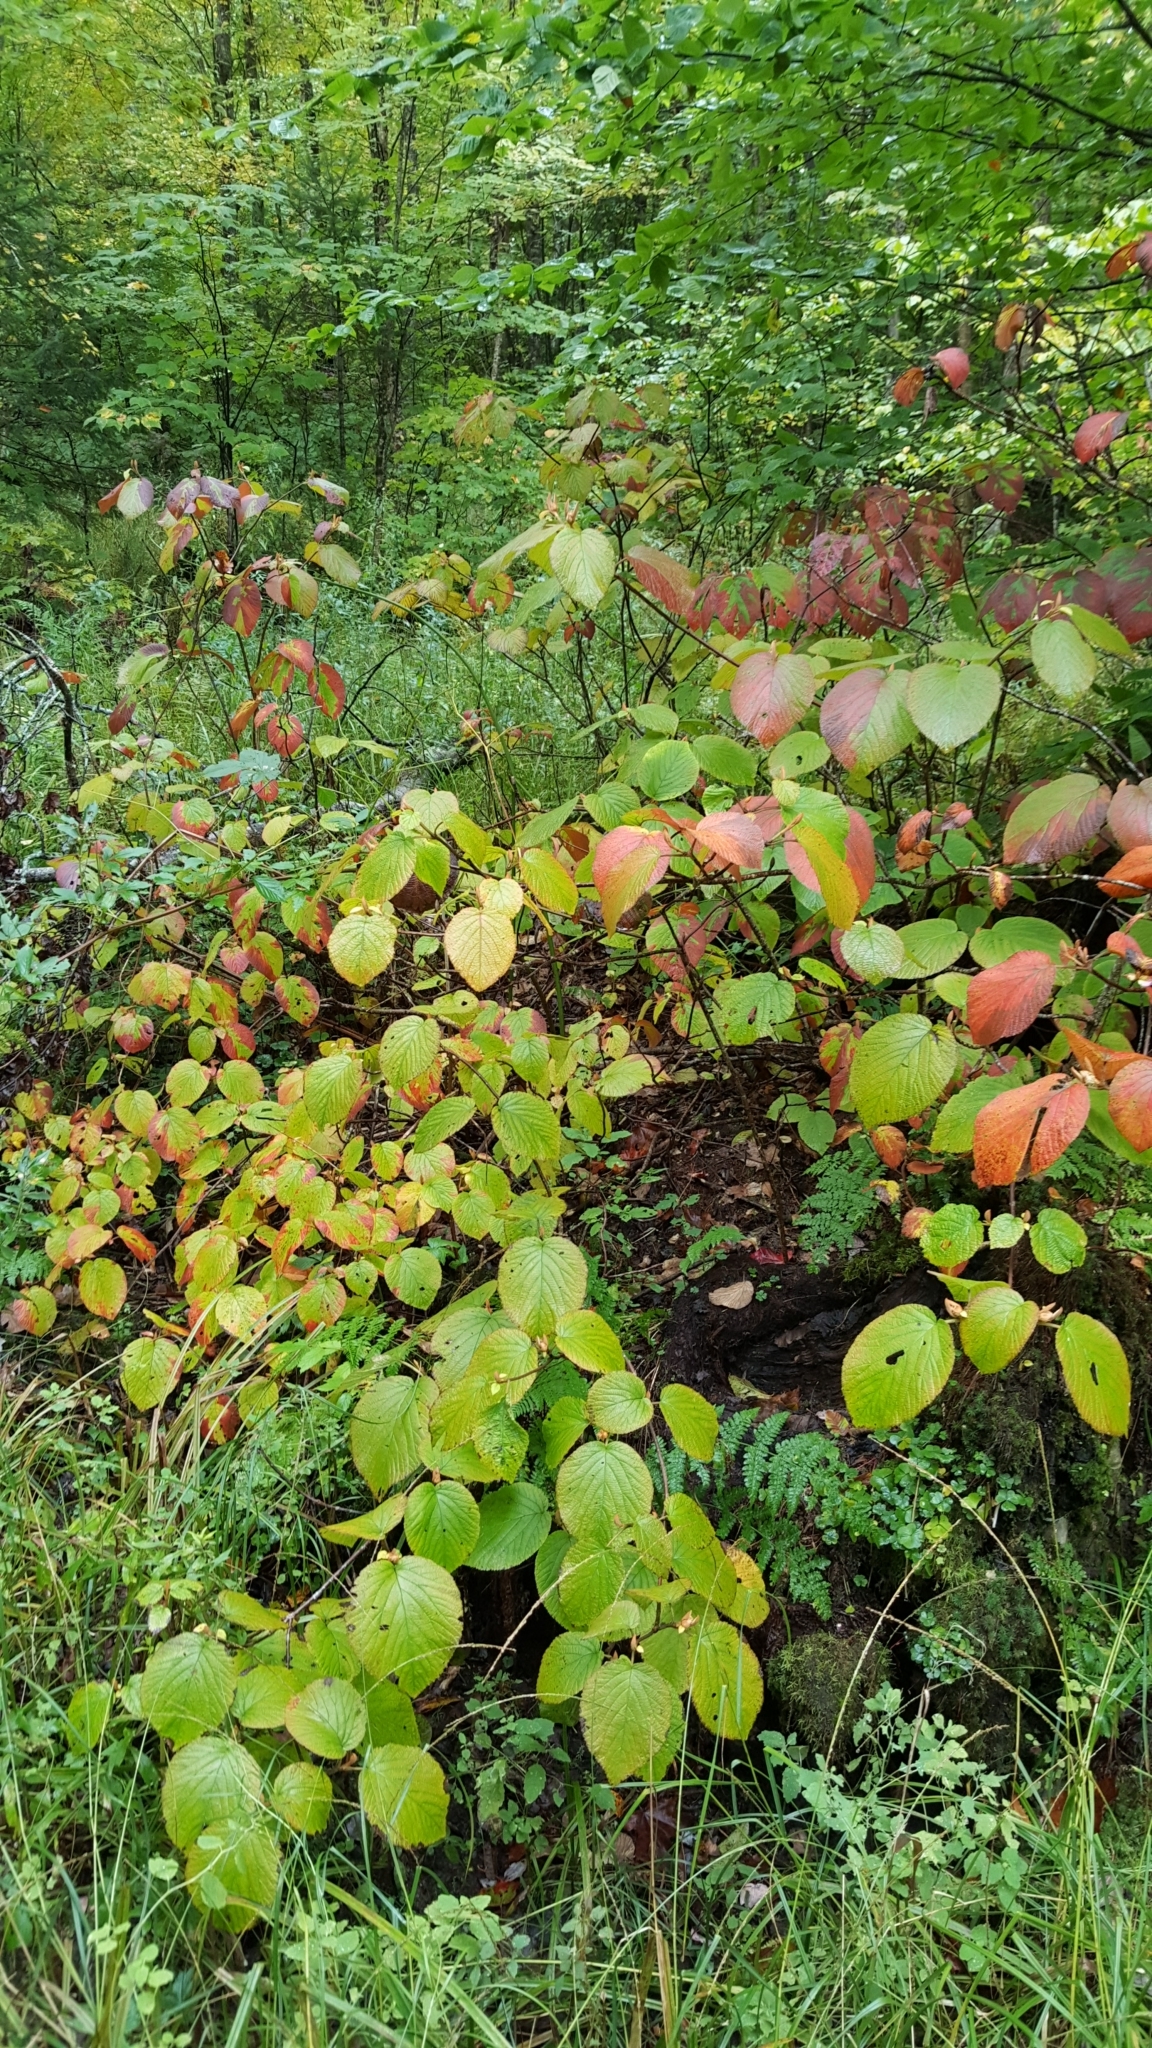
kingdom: Plantae
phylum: Tracheophyta
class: Magnoliopsida
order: Dipsacales
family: Viburnaceae
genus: Viburnum
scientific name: Viburnum lantanoides
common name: Hobblebush
